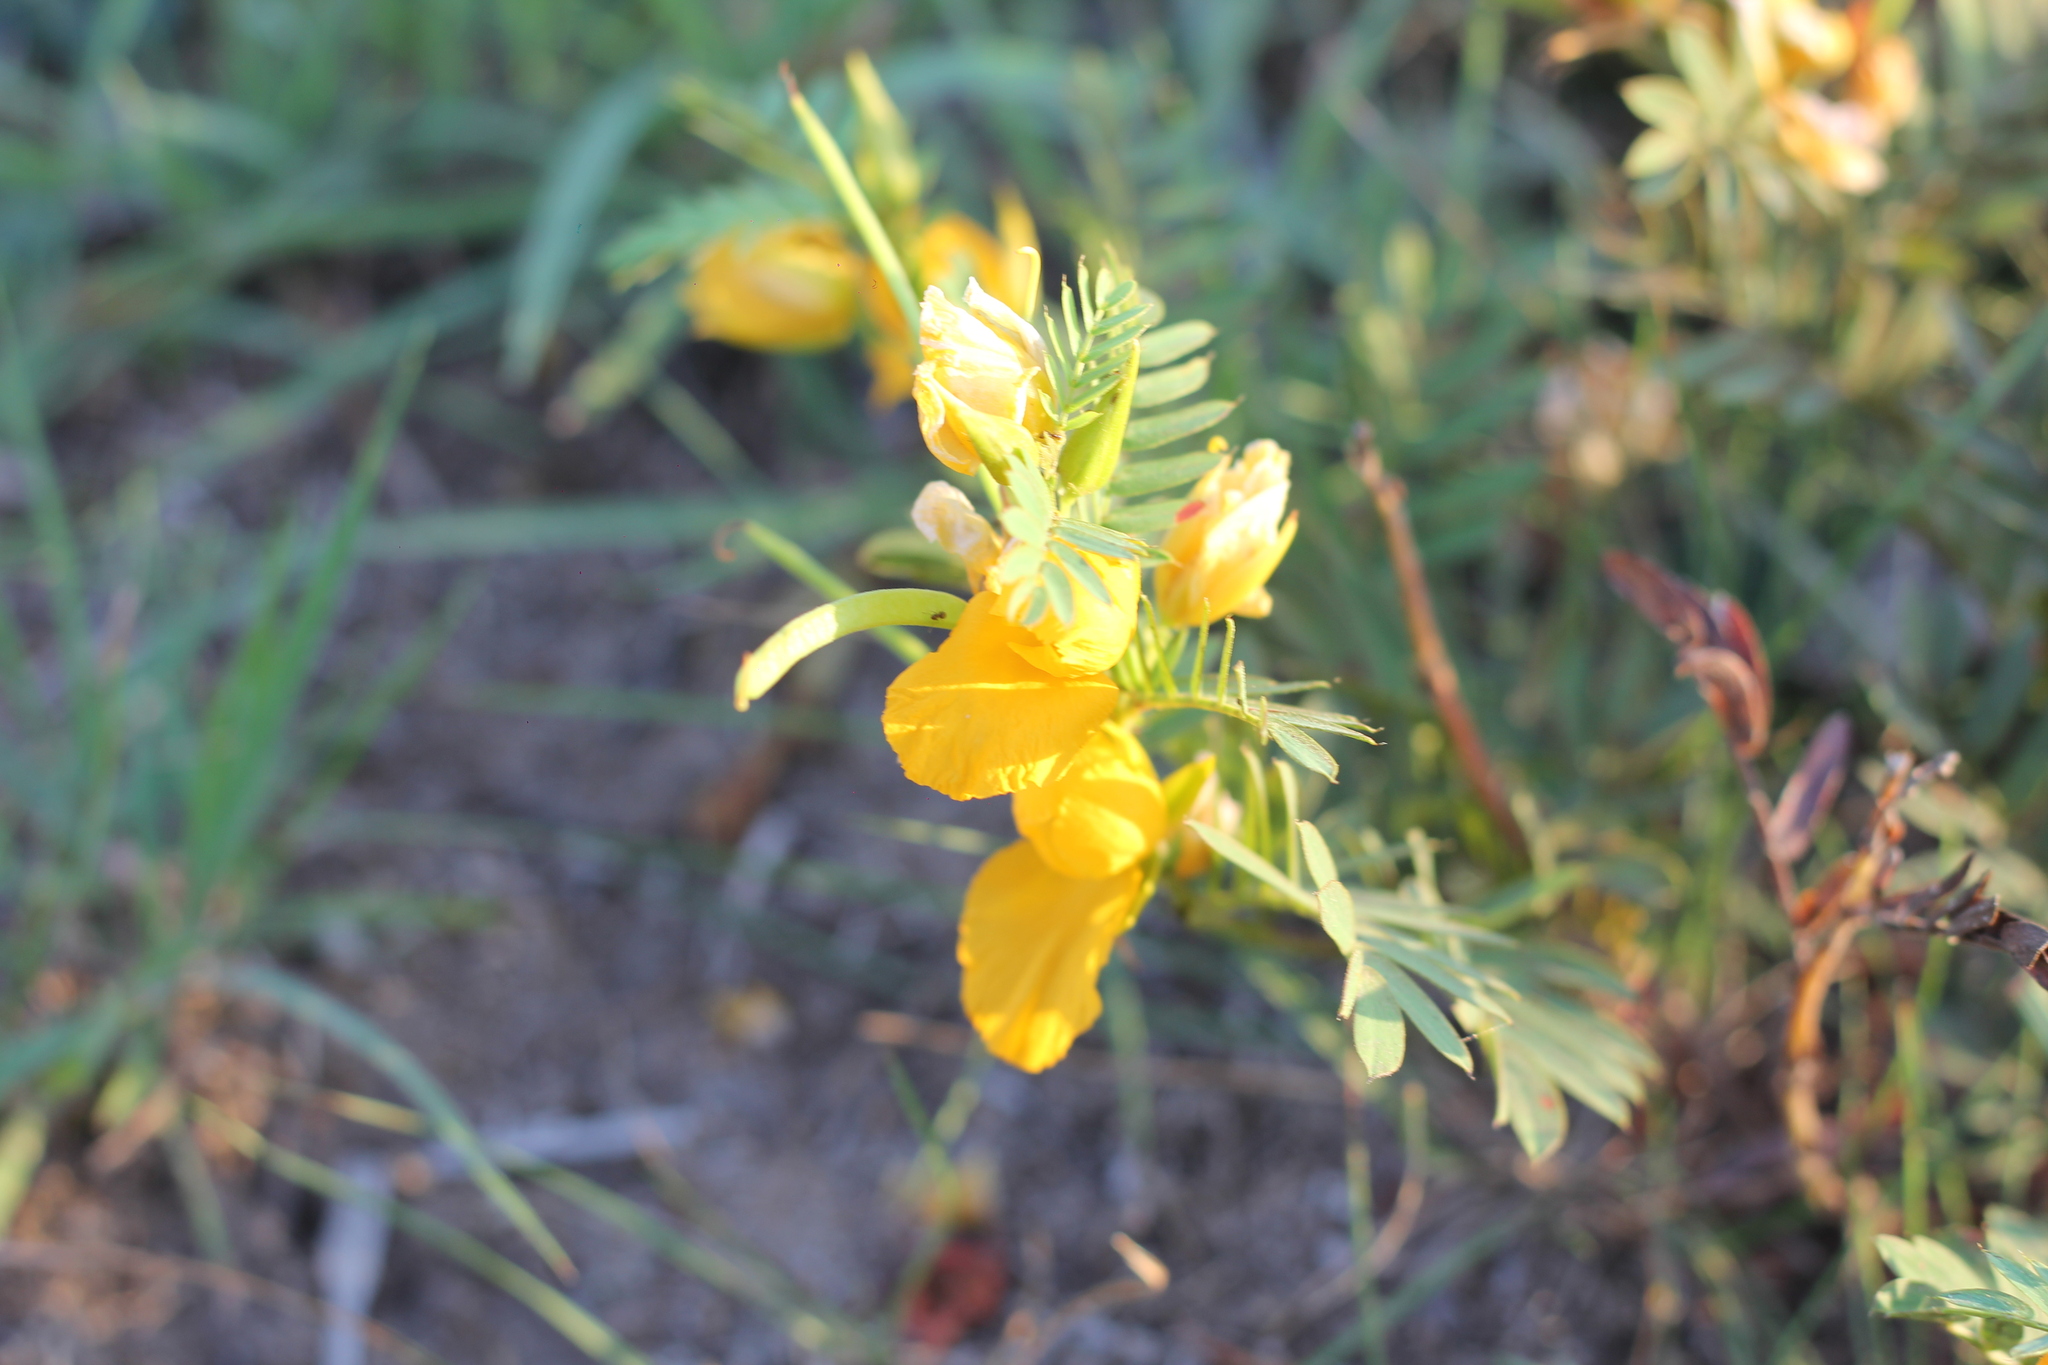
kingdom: Plantae
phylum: Tracheophyta
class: Magnoliopsida
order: Fabales
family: Fabaceae
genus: Chamaecrista
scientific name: Chamaecrista repens
